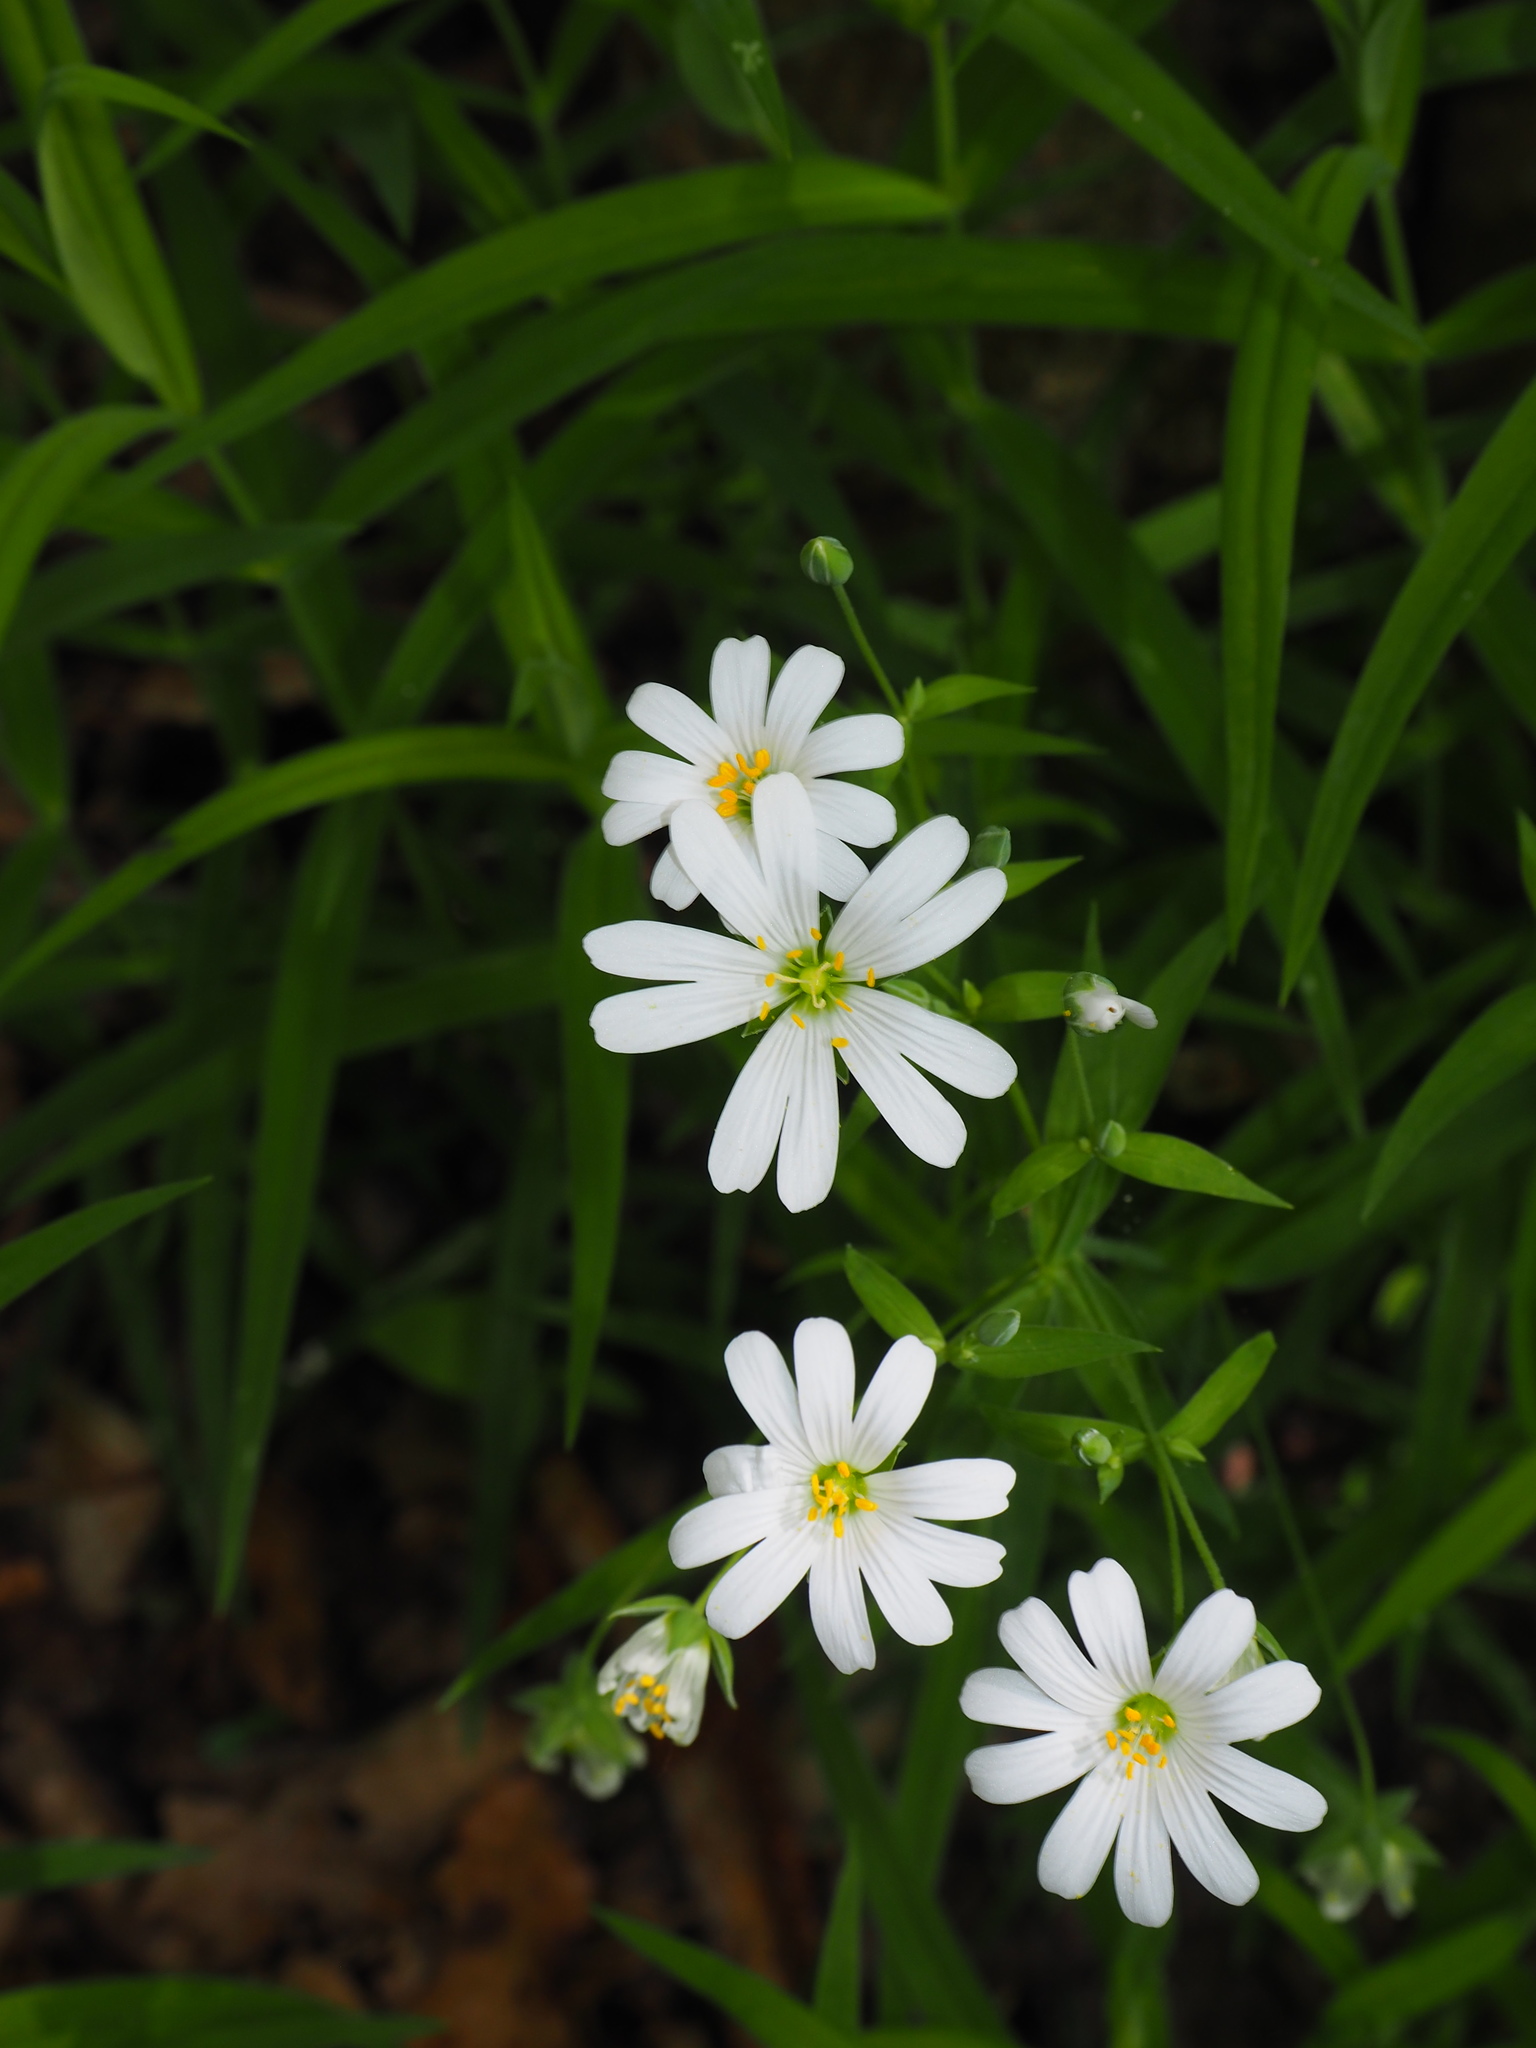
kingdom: Plantae
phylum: Tracheophyta
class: Magnoliopsida
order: Caryophyllales
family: Caryophyllaceae
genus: Rabelera
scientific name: Rabelera holostea
